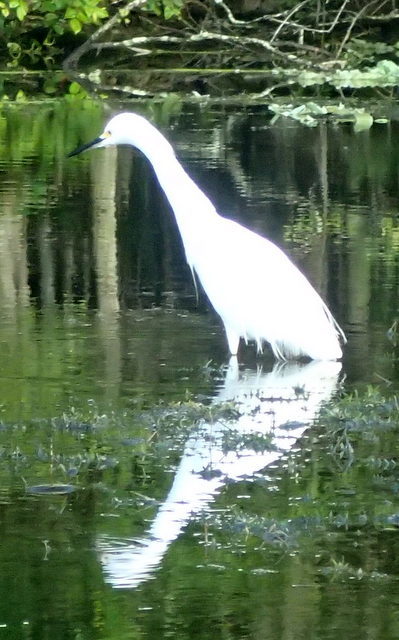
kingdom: Animalia
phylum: Chordata
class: Aves
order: Pelecaniformes
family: Ardeidae
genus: Egretta
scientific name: Egretta thula
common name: Snowy egret
